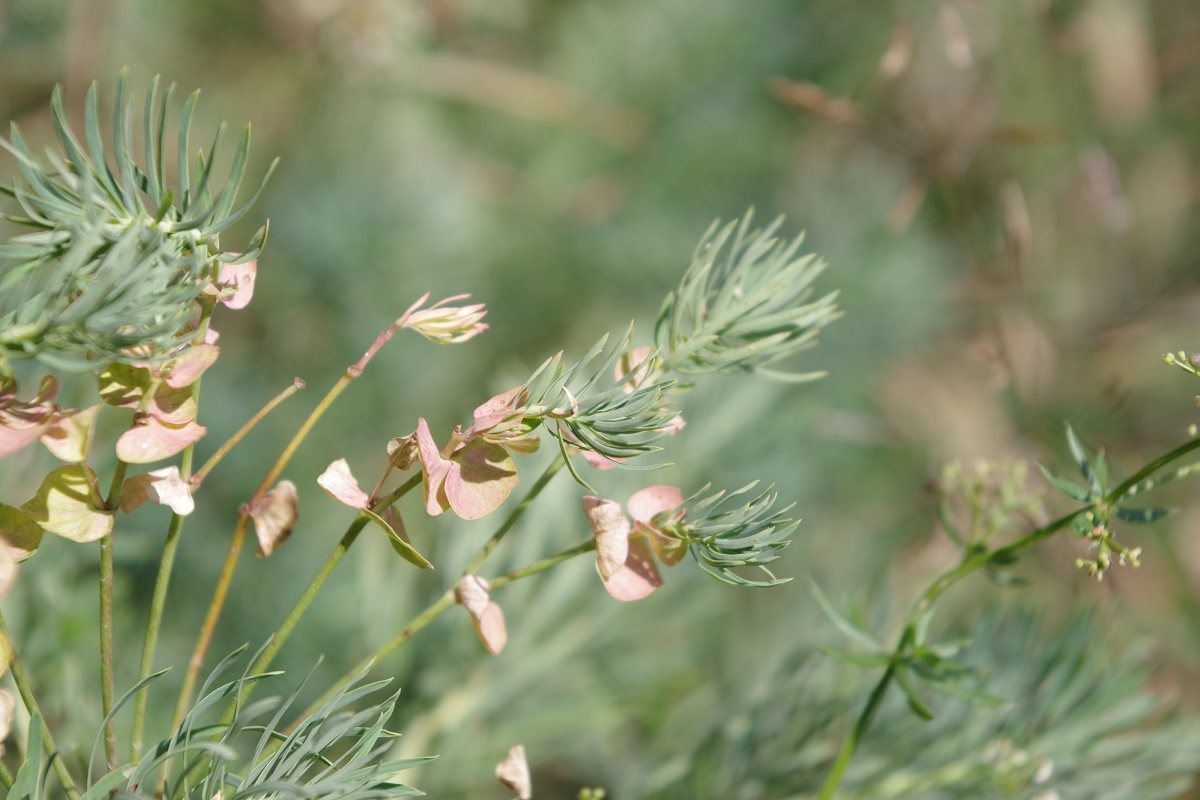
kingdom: Plantae
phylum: Tracheophyta
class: Magnoliopsida
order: Malpighiales
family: Euphorbiaceae
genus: Euphorbia
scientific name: Euphorbia cyparissias
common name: Cypress spurge
